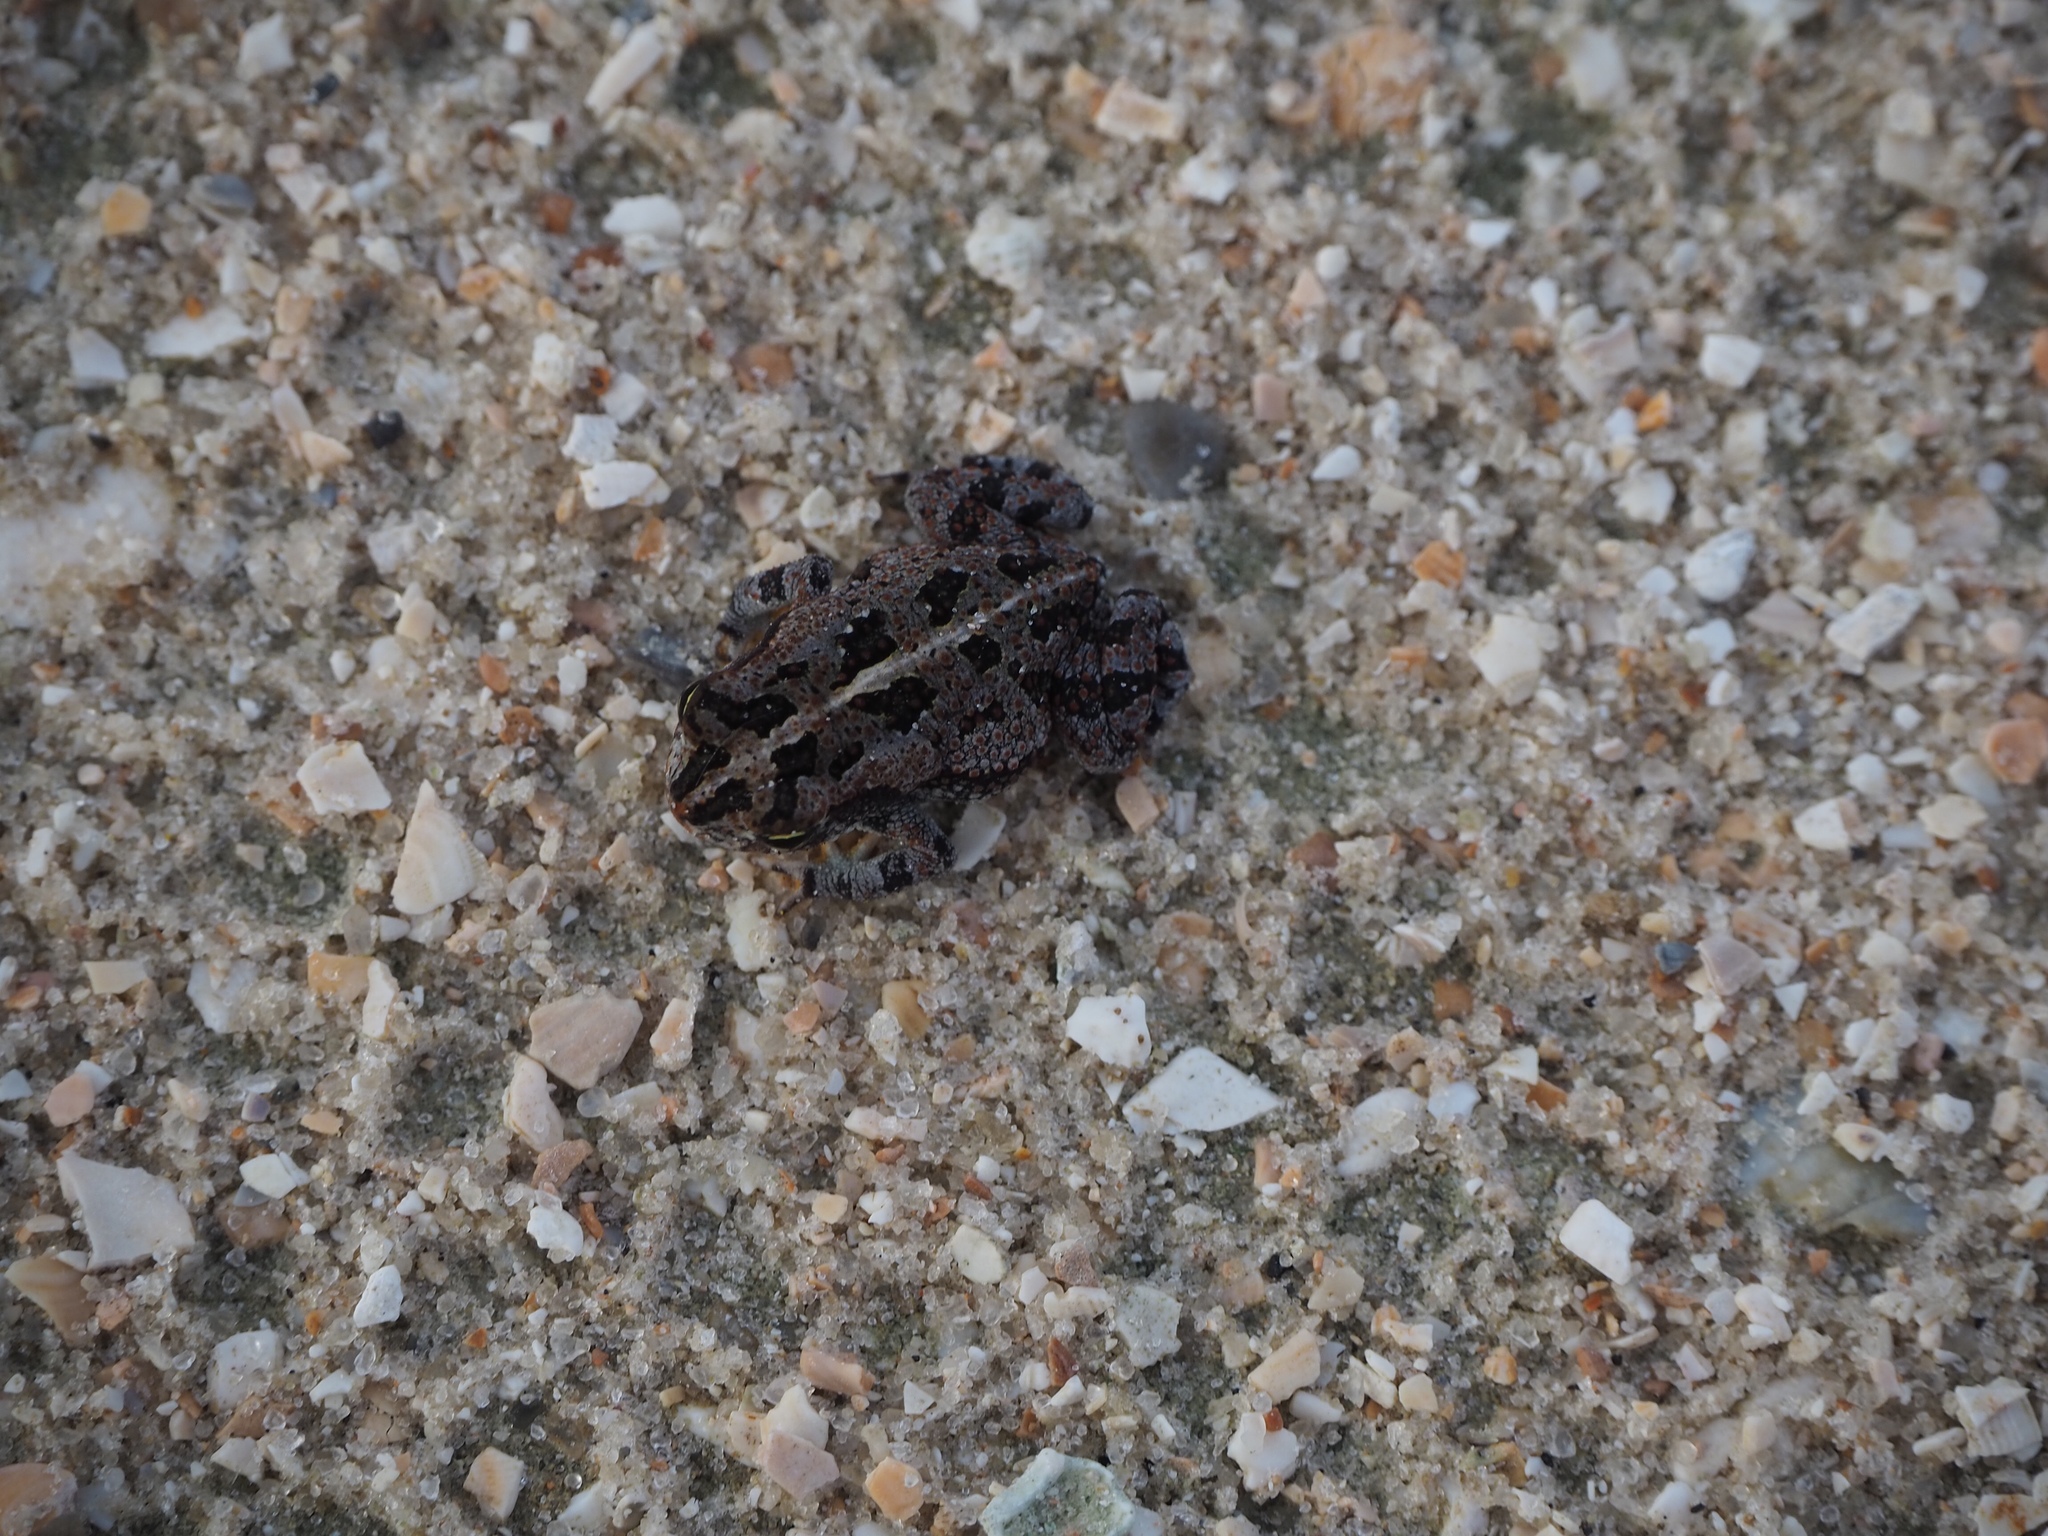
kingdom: Animalia
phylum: Chordata
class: Amphibia
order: Anura
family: Bufonidae
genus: Anaxyrus
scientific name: Anaxyrus quercicus
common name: Oak toad
